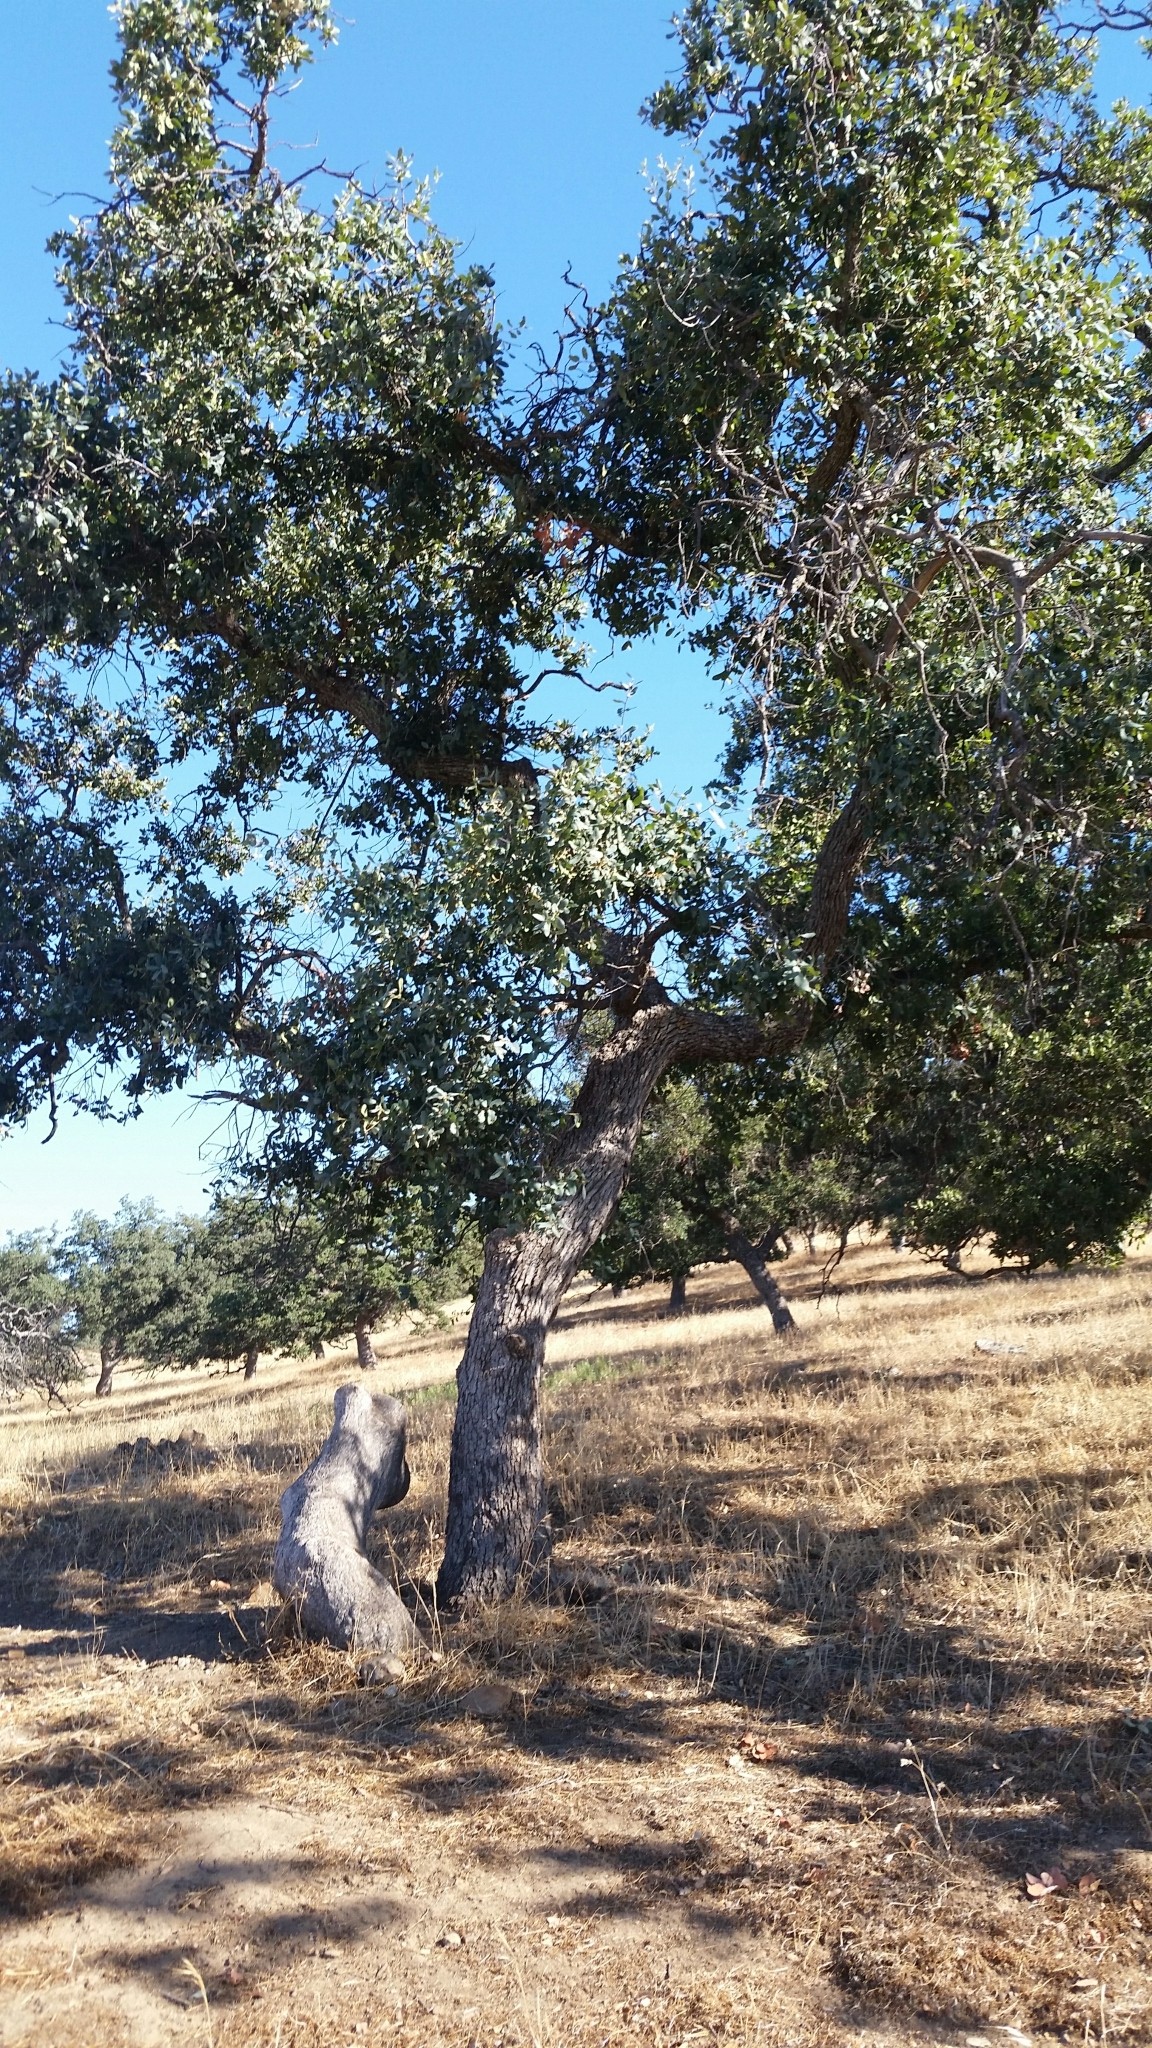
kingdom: Plantae
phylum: Tracheophyta
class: Magnoliopsida
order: Fagales
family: Fagaceae
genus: Quercus
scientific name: Quercus engelmannii
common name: Engelmann oak
